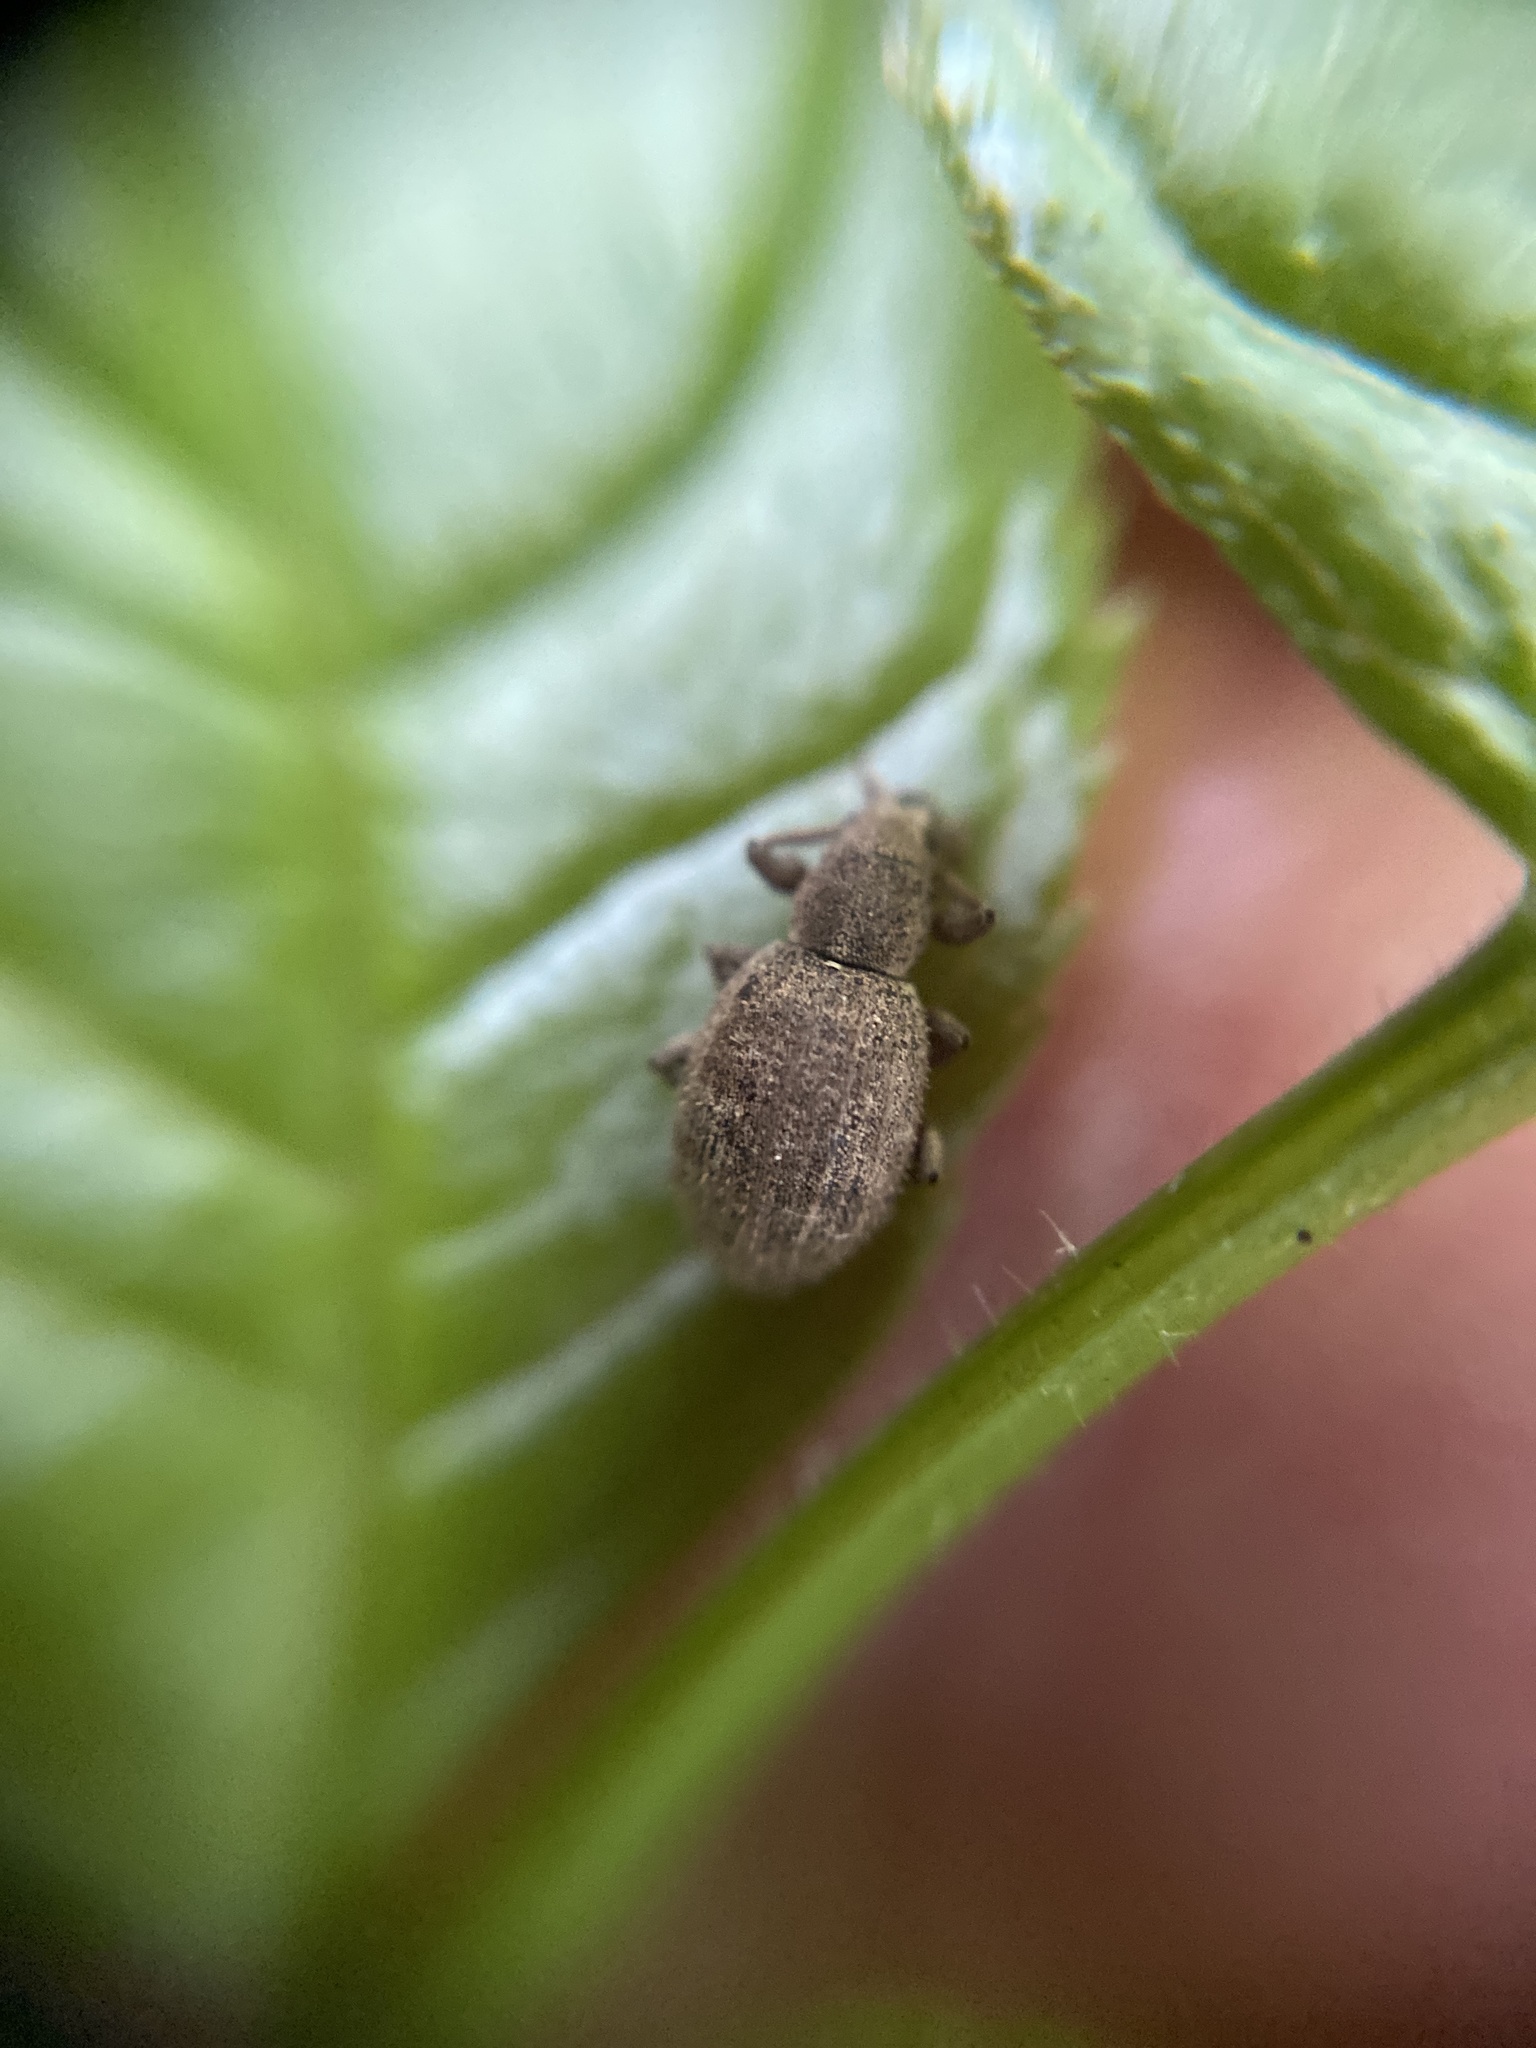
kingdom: Animalia
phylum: Arthropoda
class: Insecta
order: Coleoptera
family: Curculionidae
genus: Sciaphilus
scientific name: Sciaphilus asperatus
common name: Weevil
